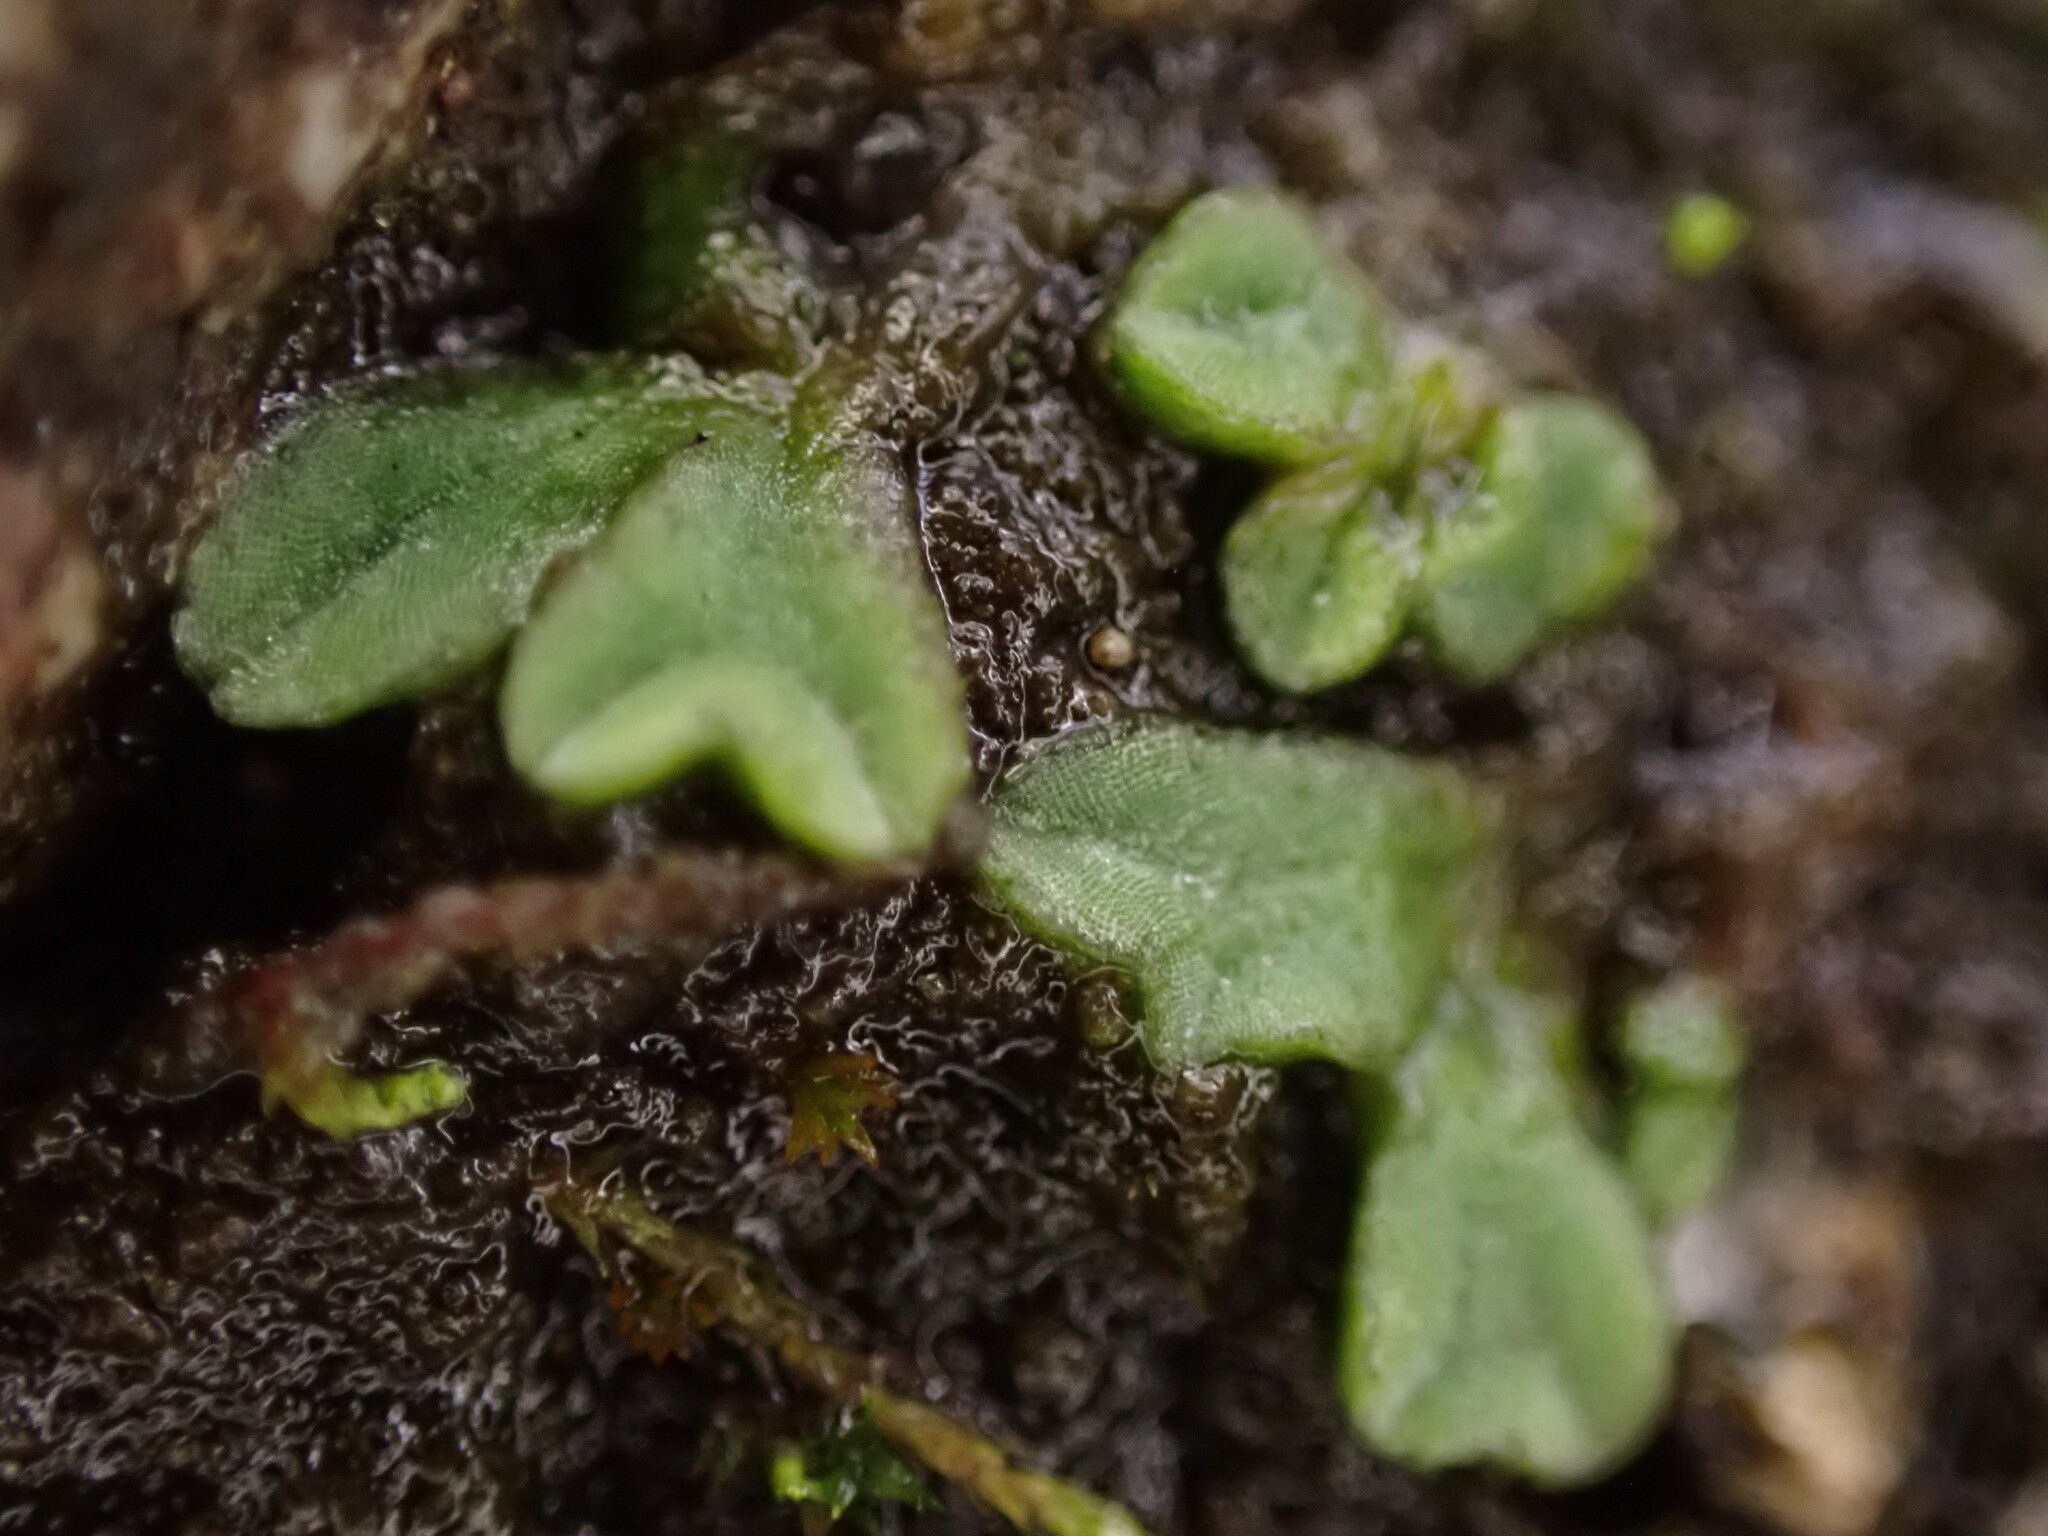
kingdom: Plantae
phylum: Marchantiophyta
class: Marchantiopsida
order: Marchantiales
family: Ricciaceae
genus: Riccia
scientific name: Riccia sorocarpa
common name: Common crystalwort
